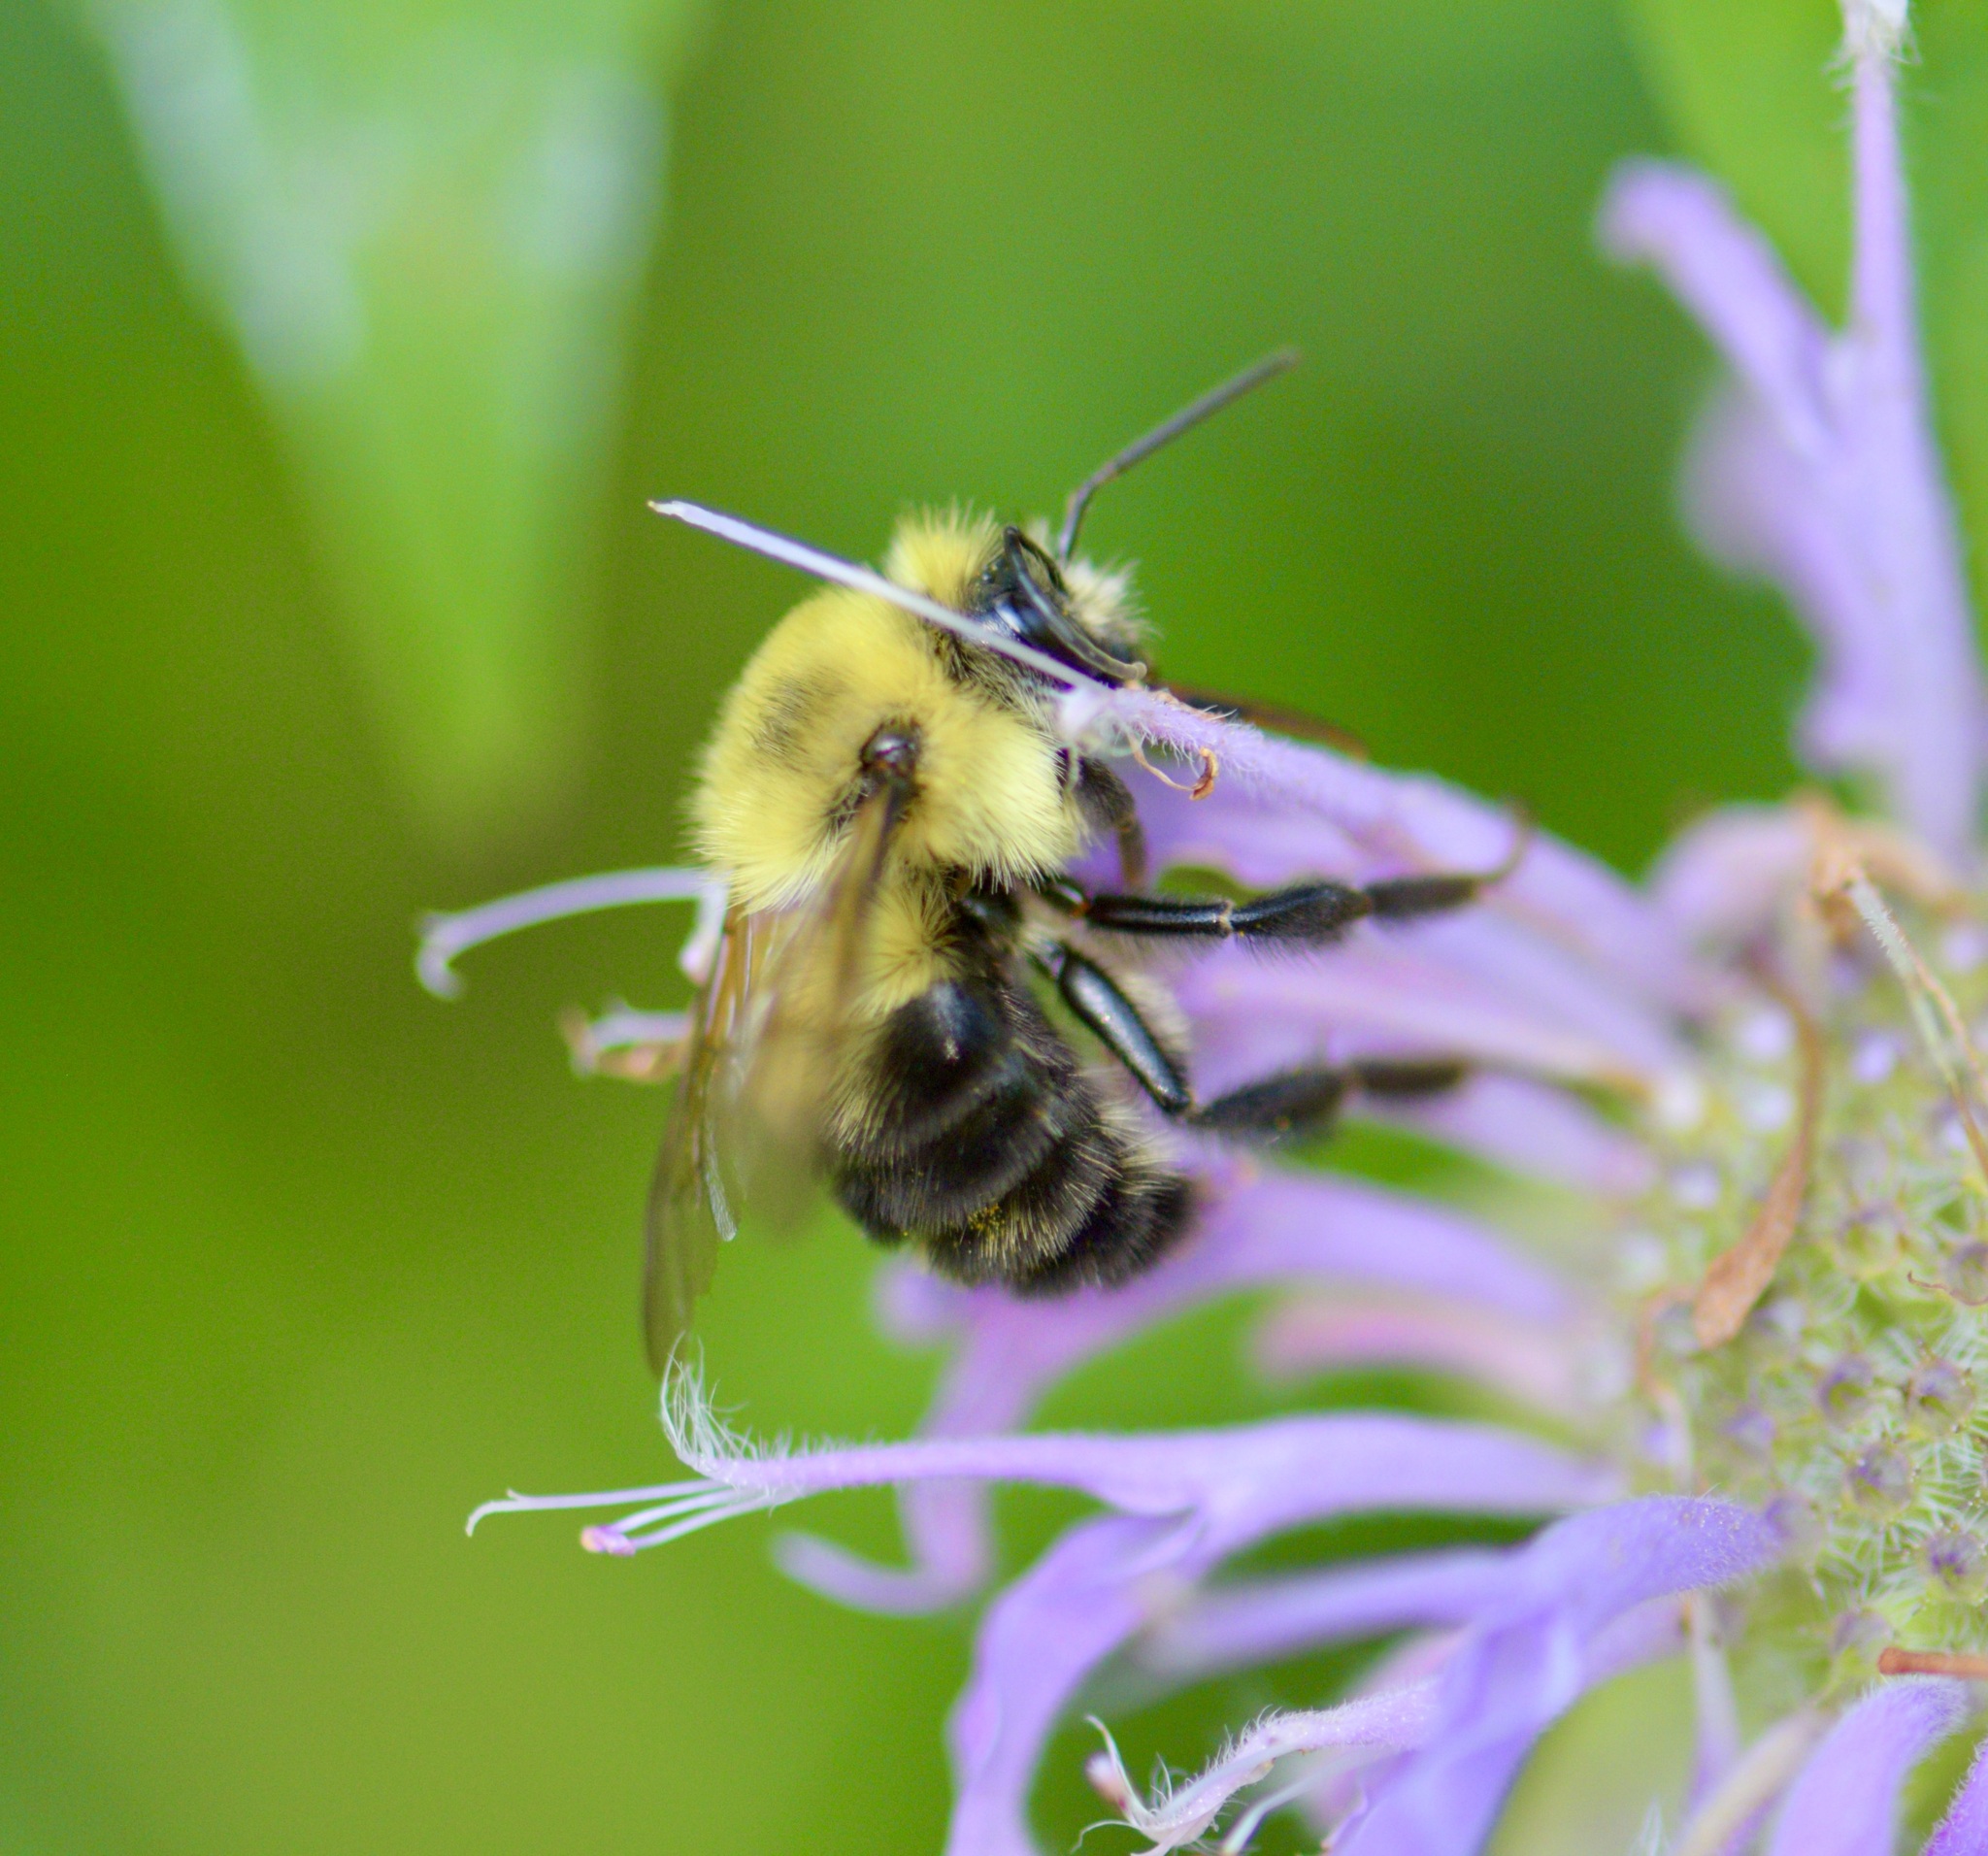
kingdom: Animalia
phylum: Arthropoda
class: Insecta
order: Hymenoptera
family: Apidae
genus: Bombus
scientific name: Bombus bimaculatus
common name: Two-spotted bumble bee
